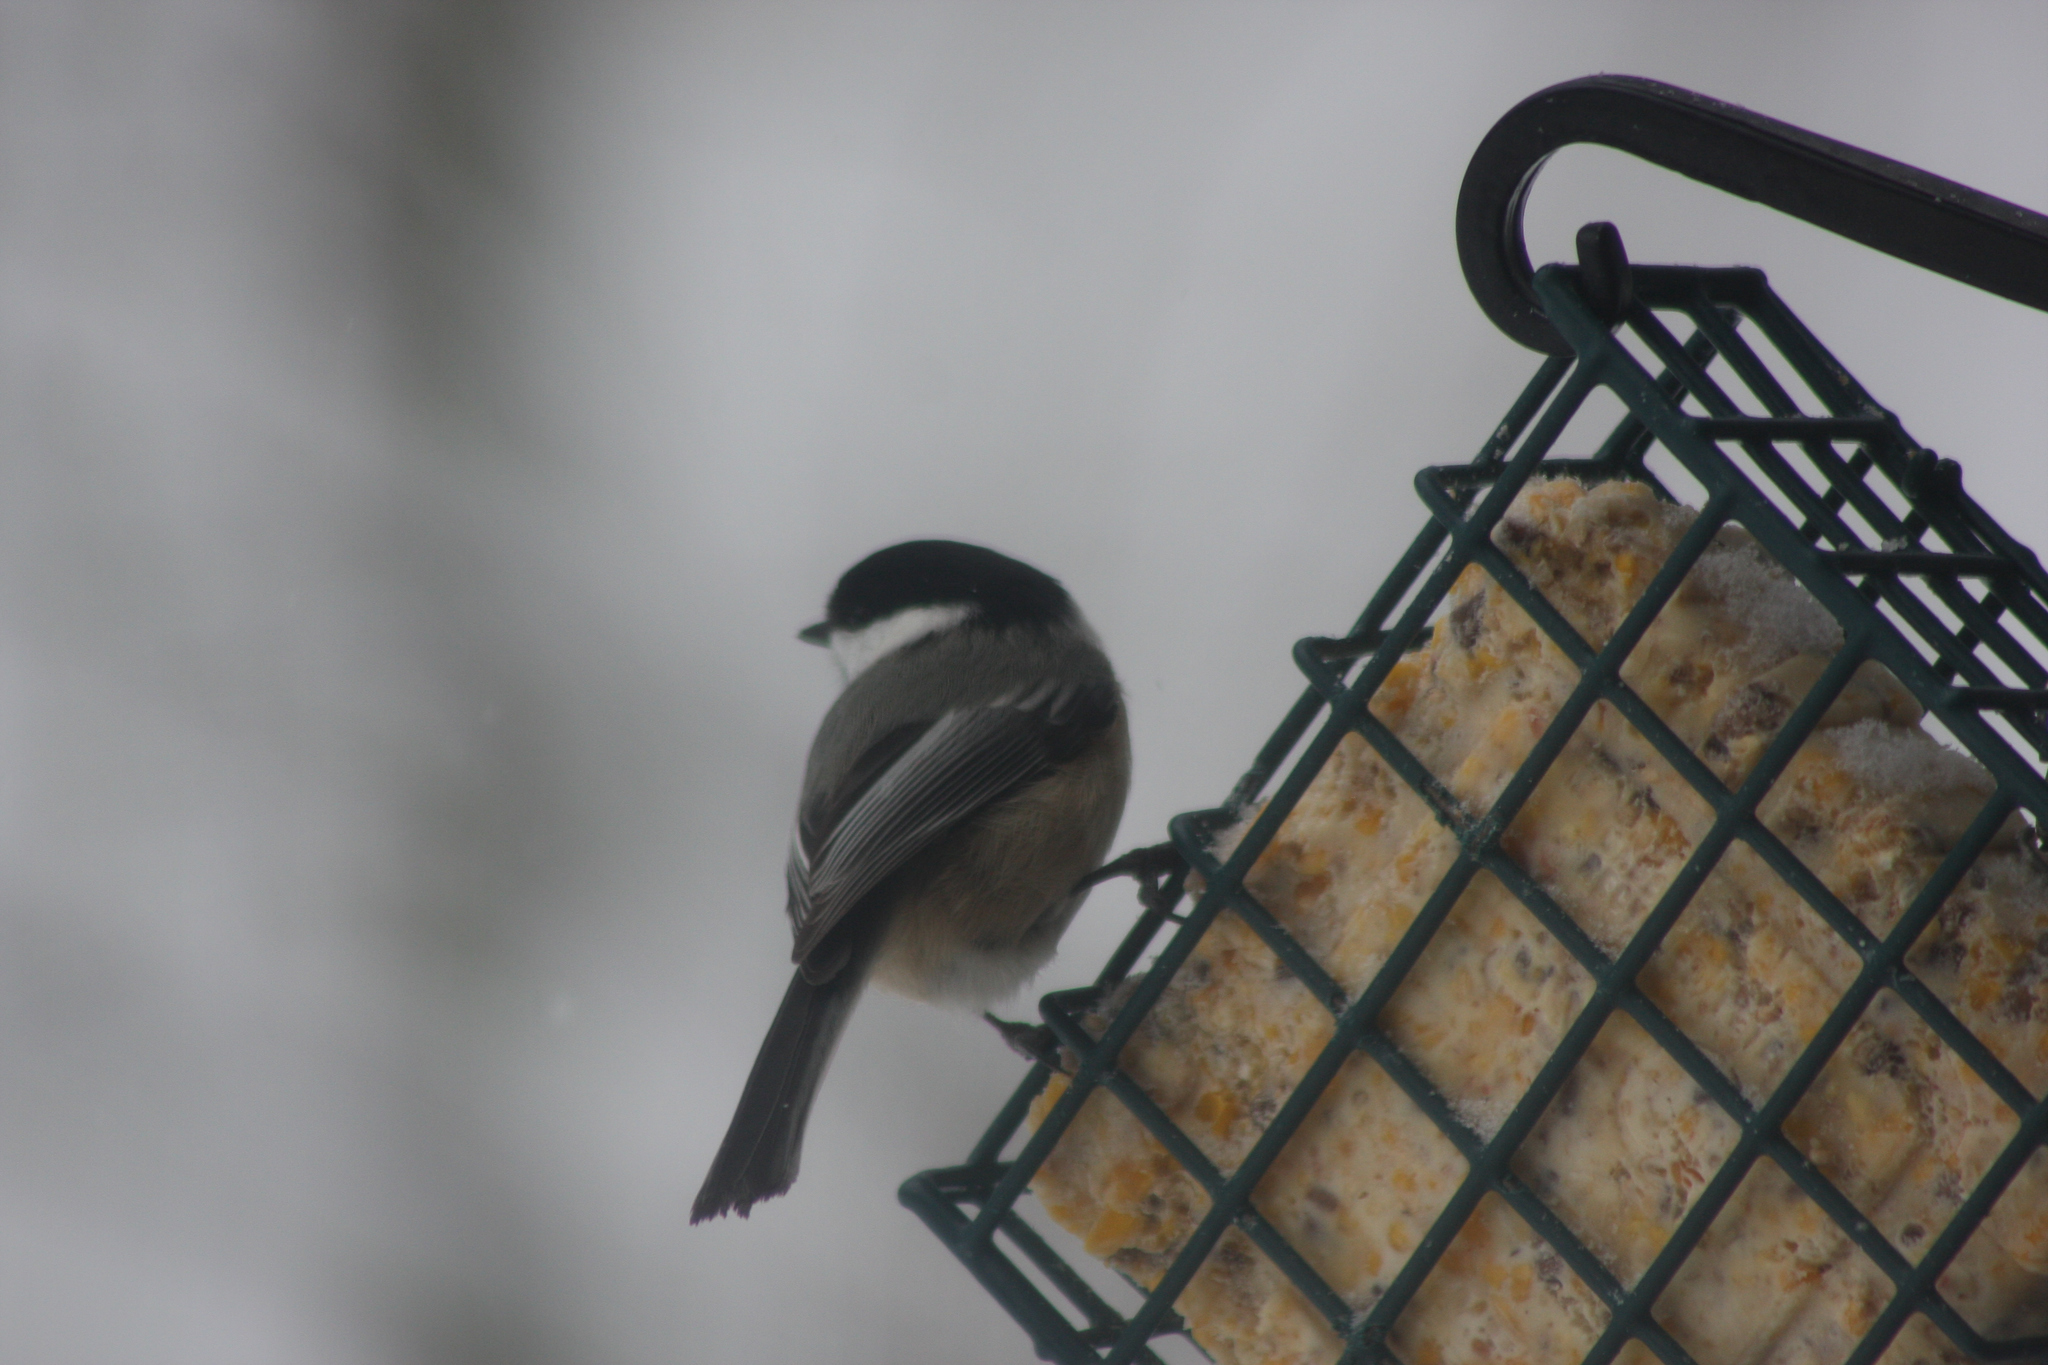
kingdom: Animalia
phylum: Chordata
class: Aves
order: Passeriformes
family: Paridae
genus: Poecile
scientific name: Poecile atricapillus
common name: Black-capped chickadee
